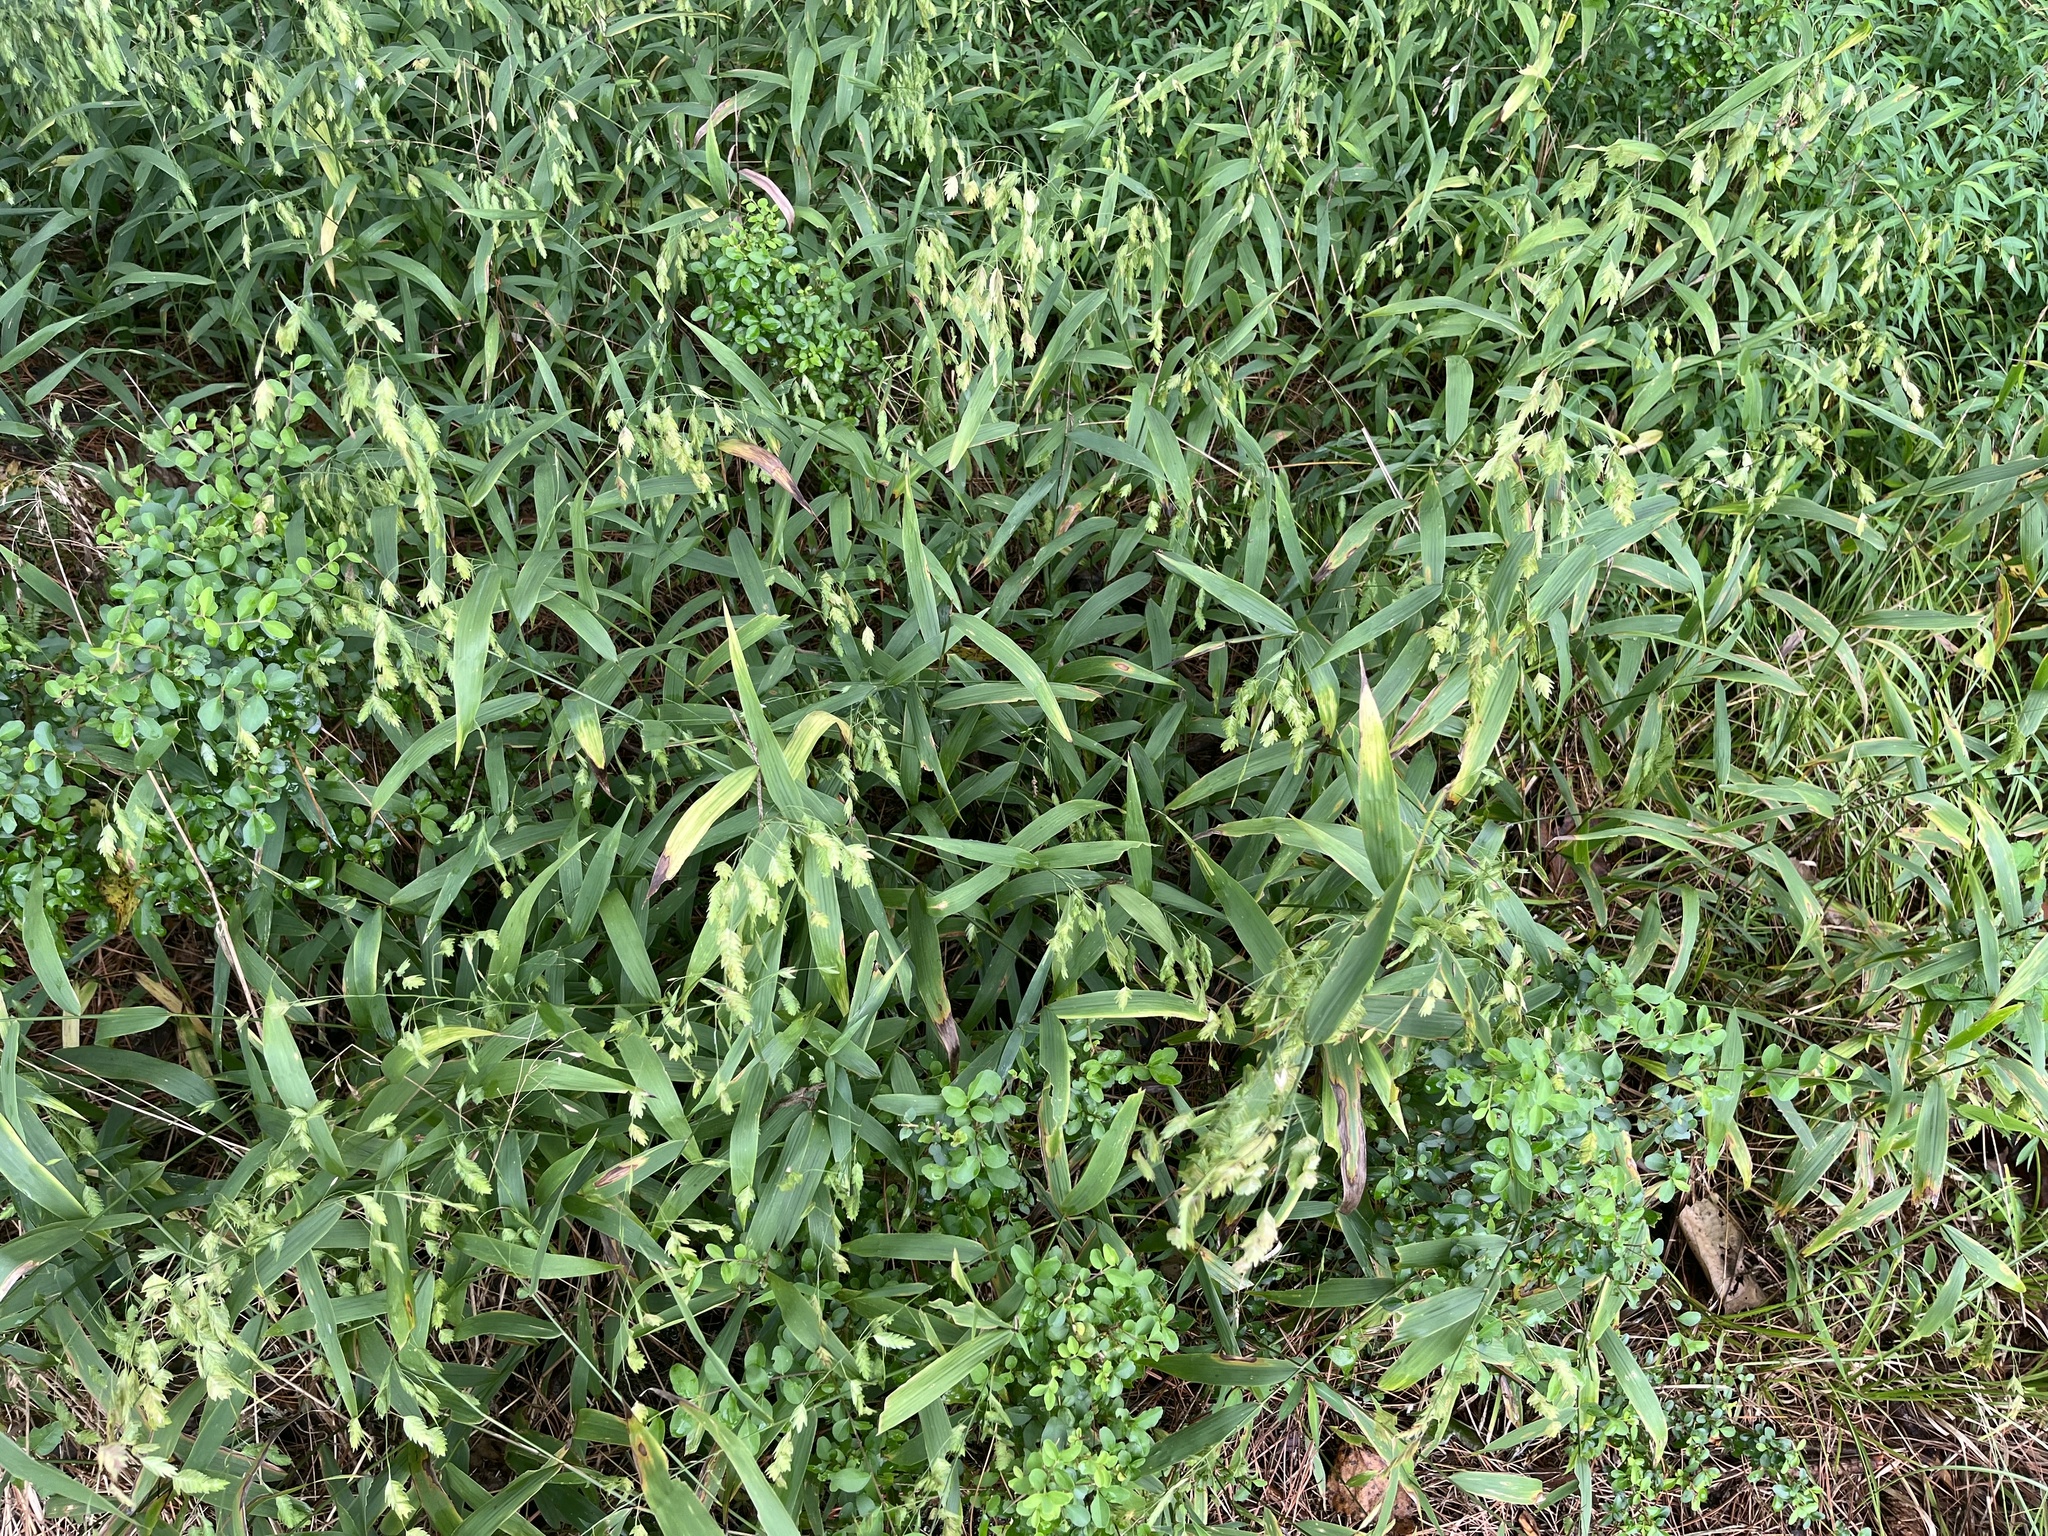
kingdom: Plantae
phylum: Tracheophyta
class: Liliopsida
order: Poales
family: Poaceae
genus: Chasmanthium
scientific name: Chasmanthium latifolium
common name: Broad-leaved chasmanthium
